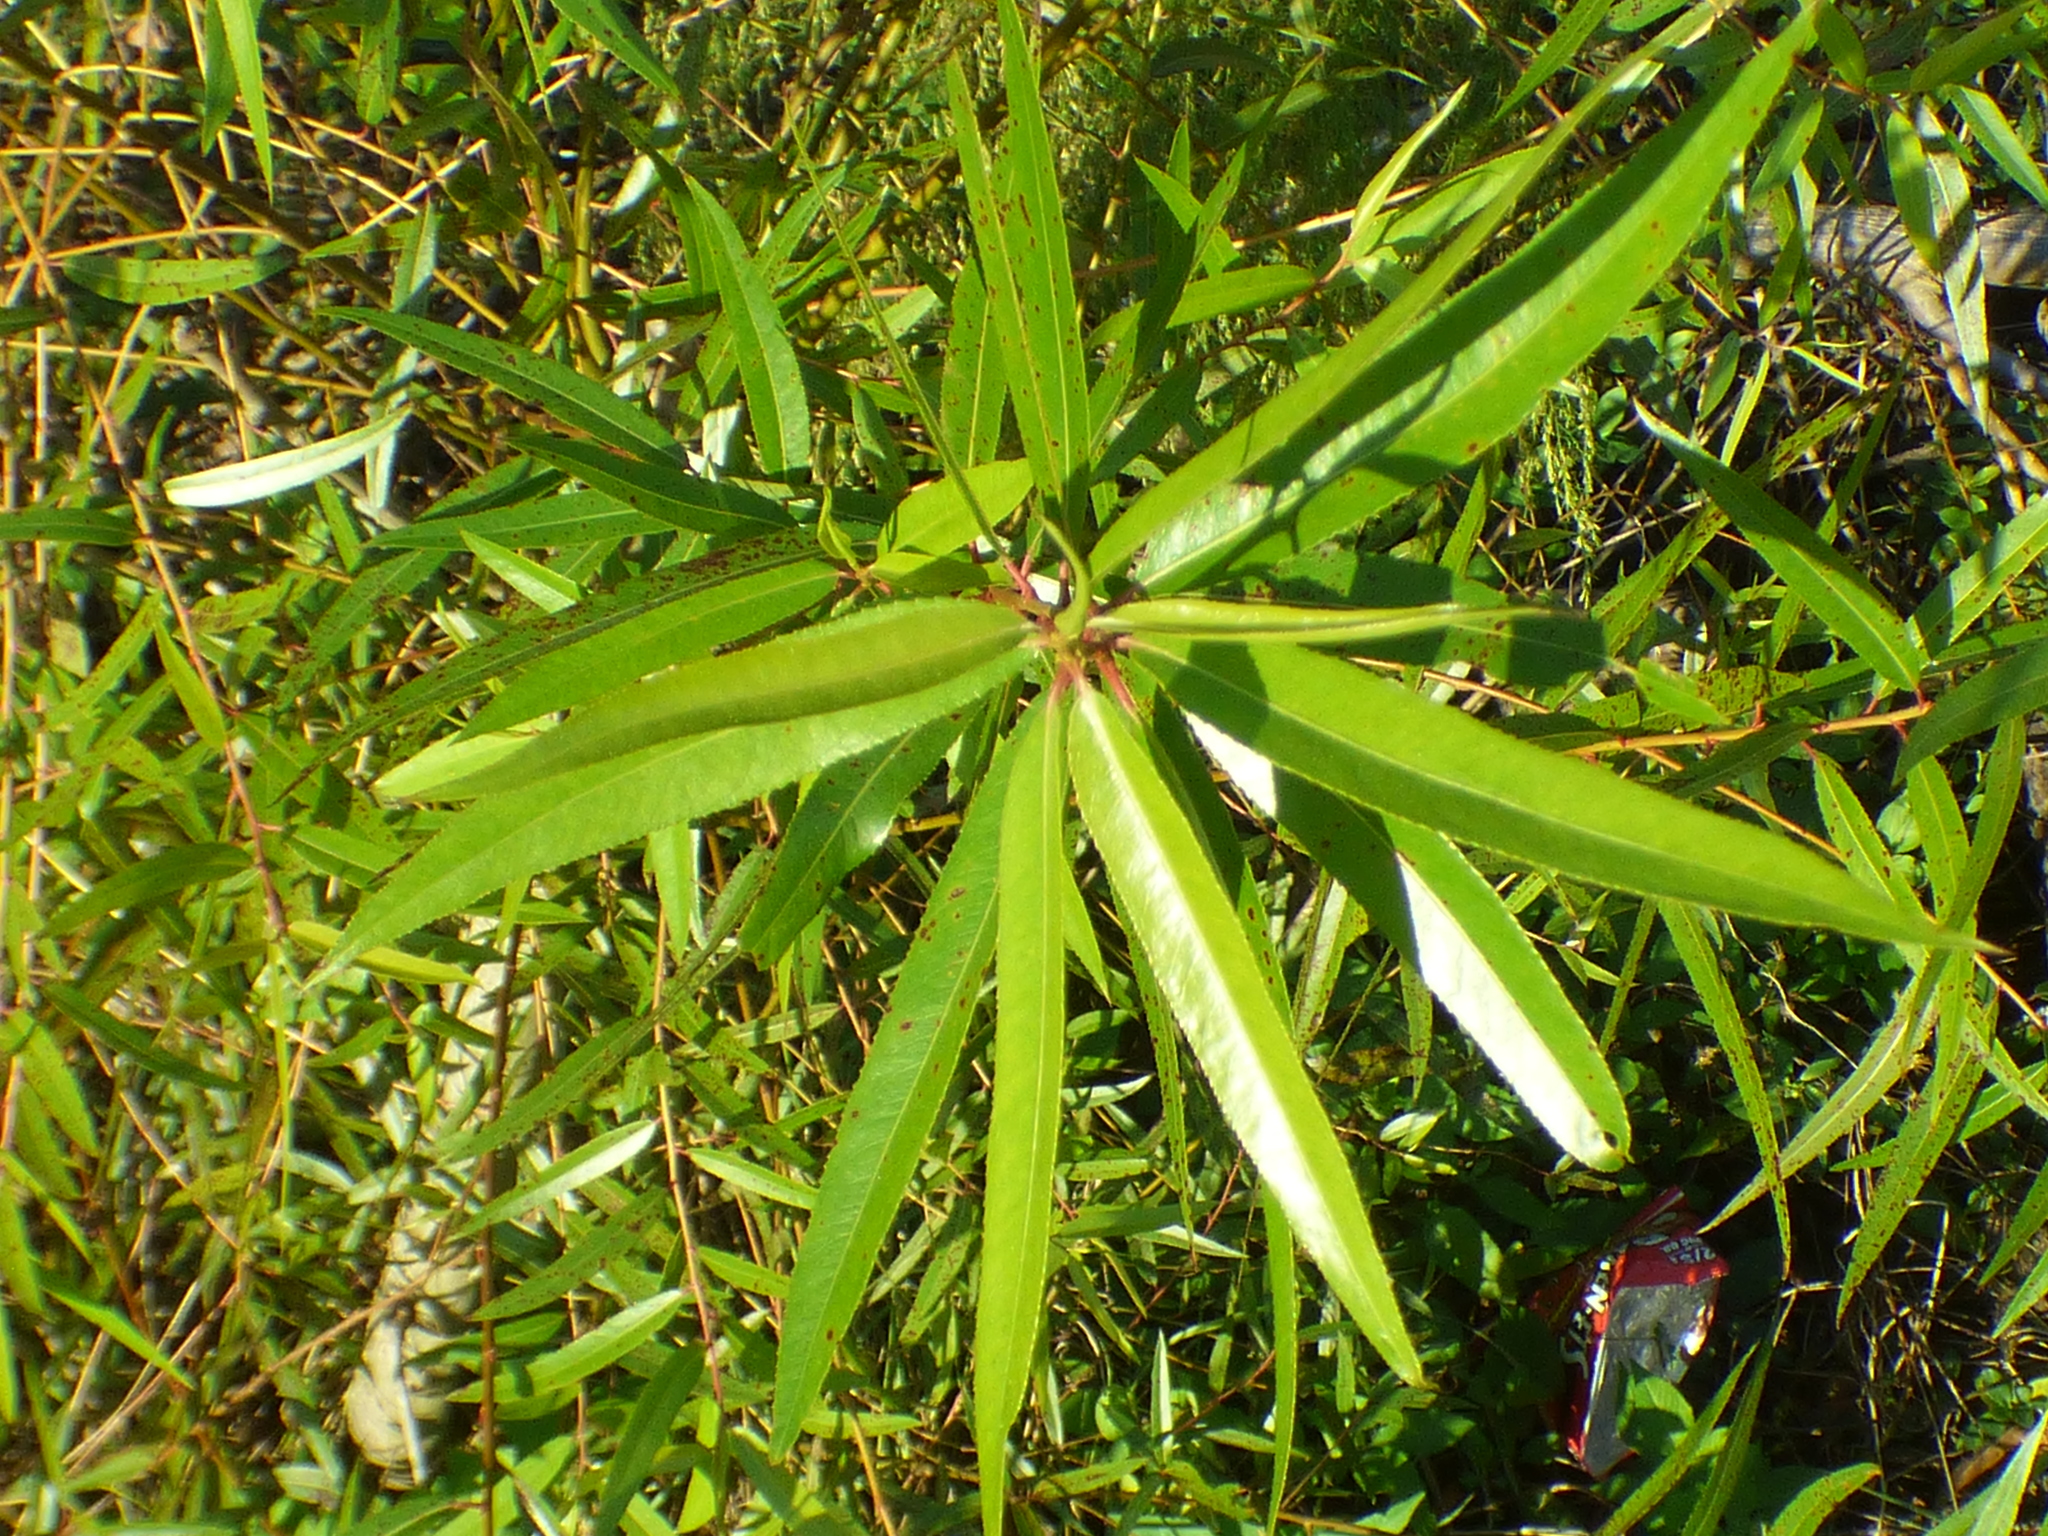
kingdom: Plantae
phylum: Tracheophyta
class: Magnoliopsida
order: Malpighiales
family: Salicaceae
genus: Salix
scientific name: Salix caroliniana
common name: Carolina willow
